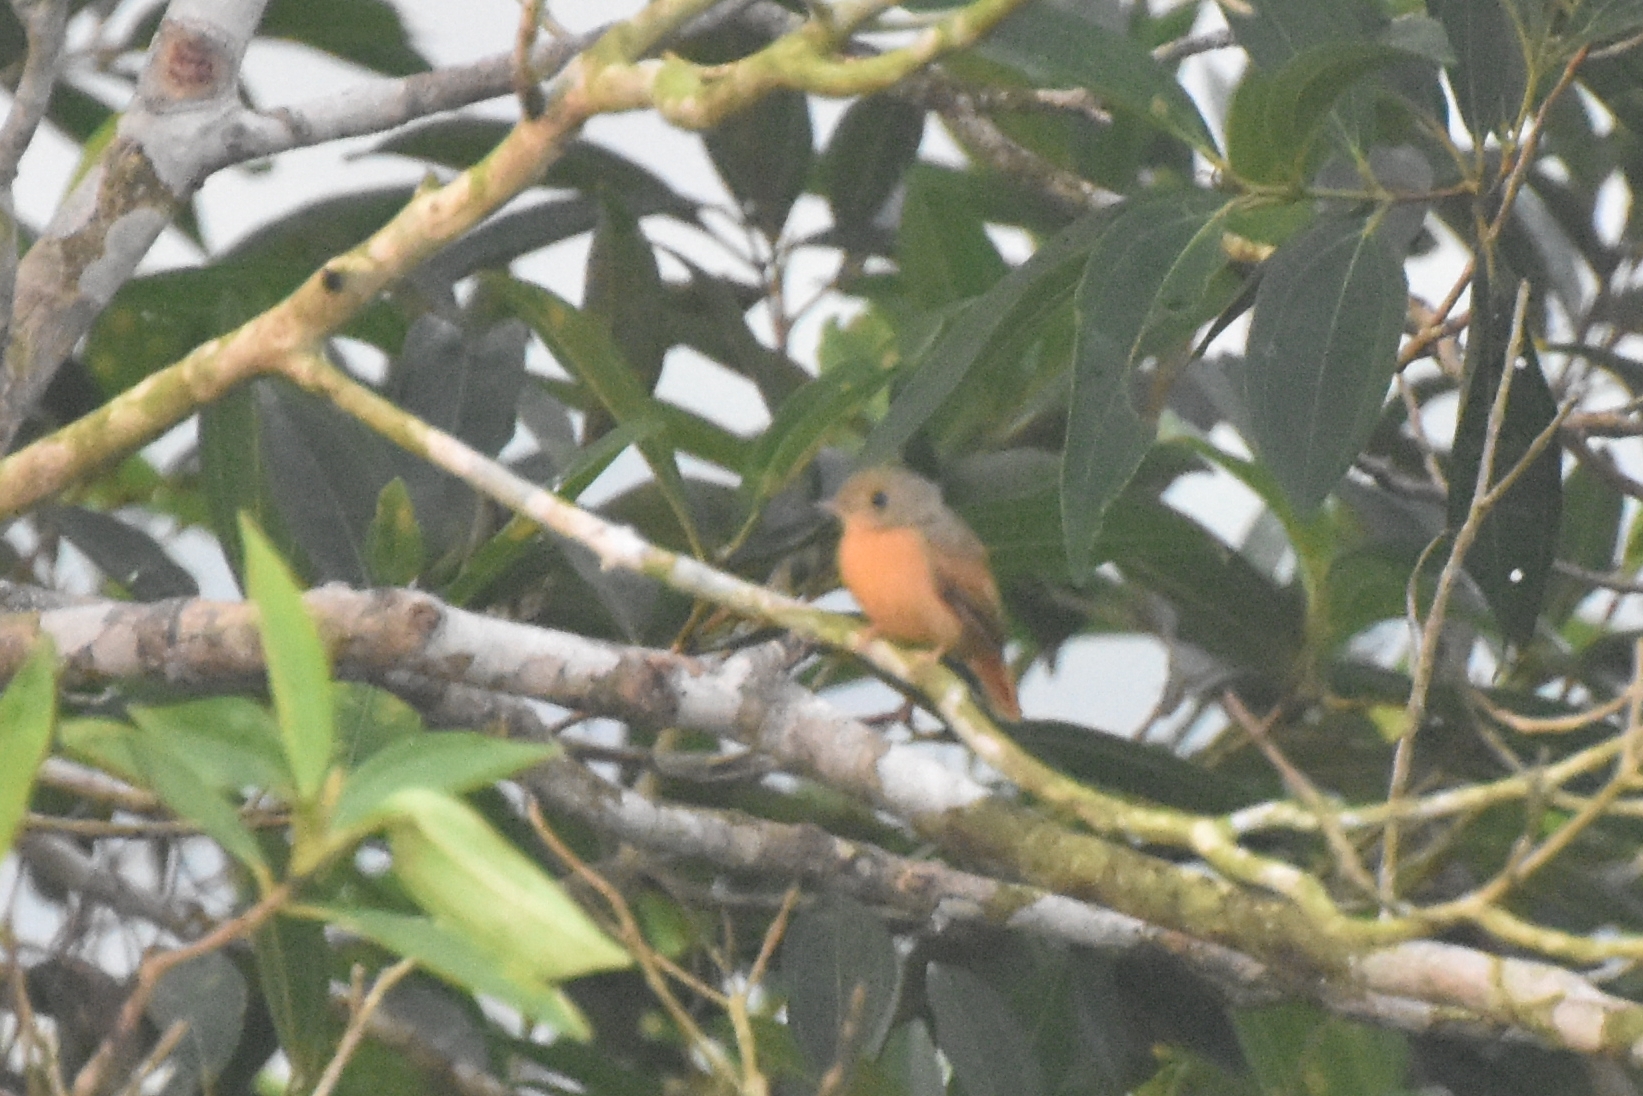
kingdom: Animalia
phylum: Chordata
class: Aves
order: Passeriformes
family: Tyrannidae
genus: Terenotriccus
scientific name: Terenotriccus erythrurus
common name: Ruddy-tailed flycatcher
